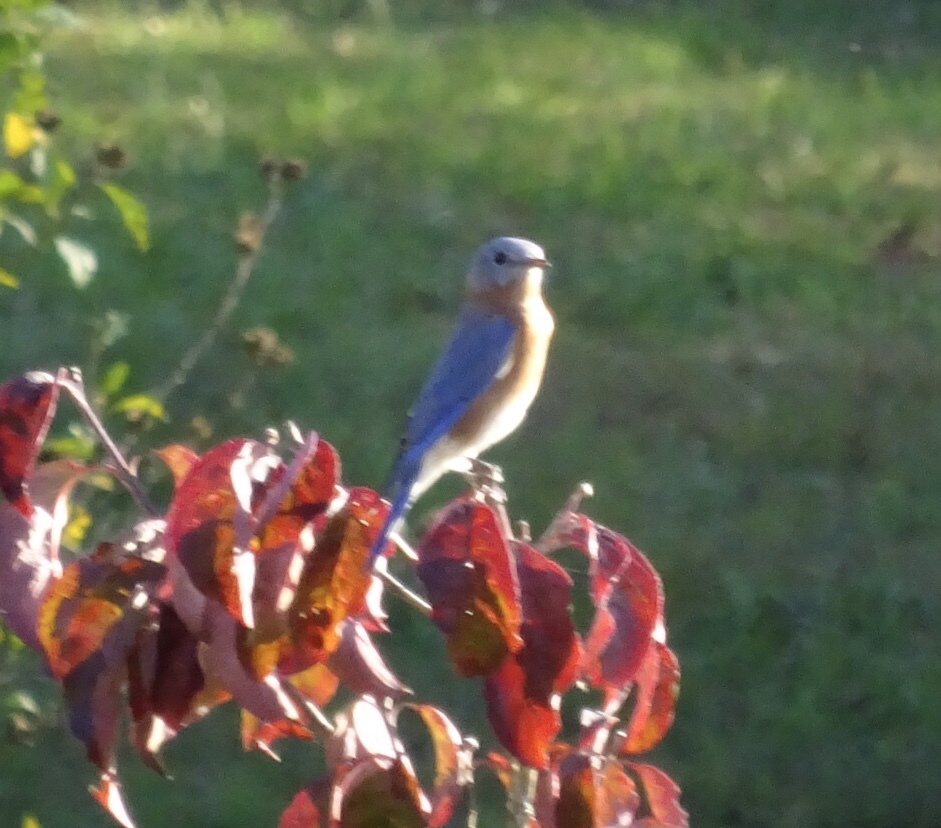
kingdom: Animalia
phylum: Chordata
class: Aves
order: Passeriformes
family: Turdidae
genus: Sialia
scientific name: Sialia sialis
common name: Eastern bluebird
